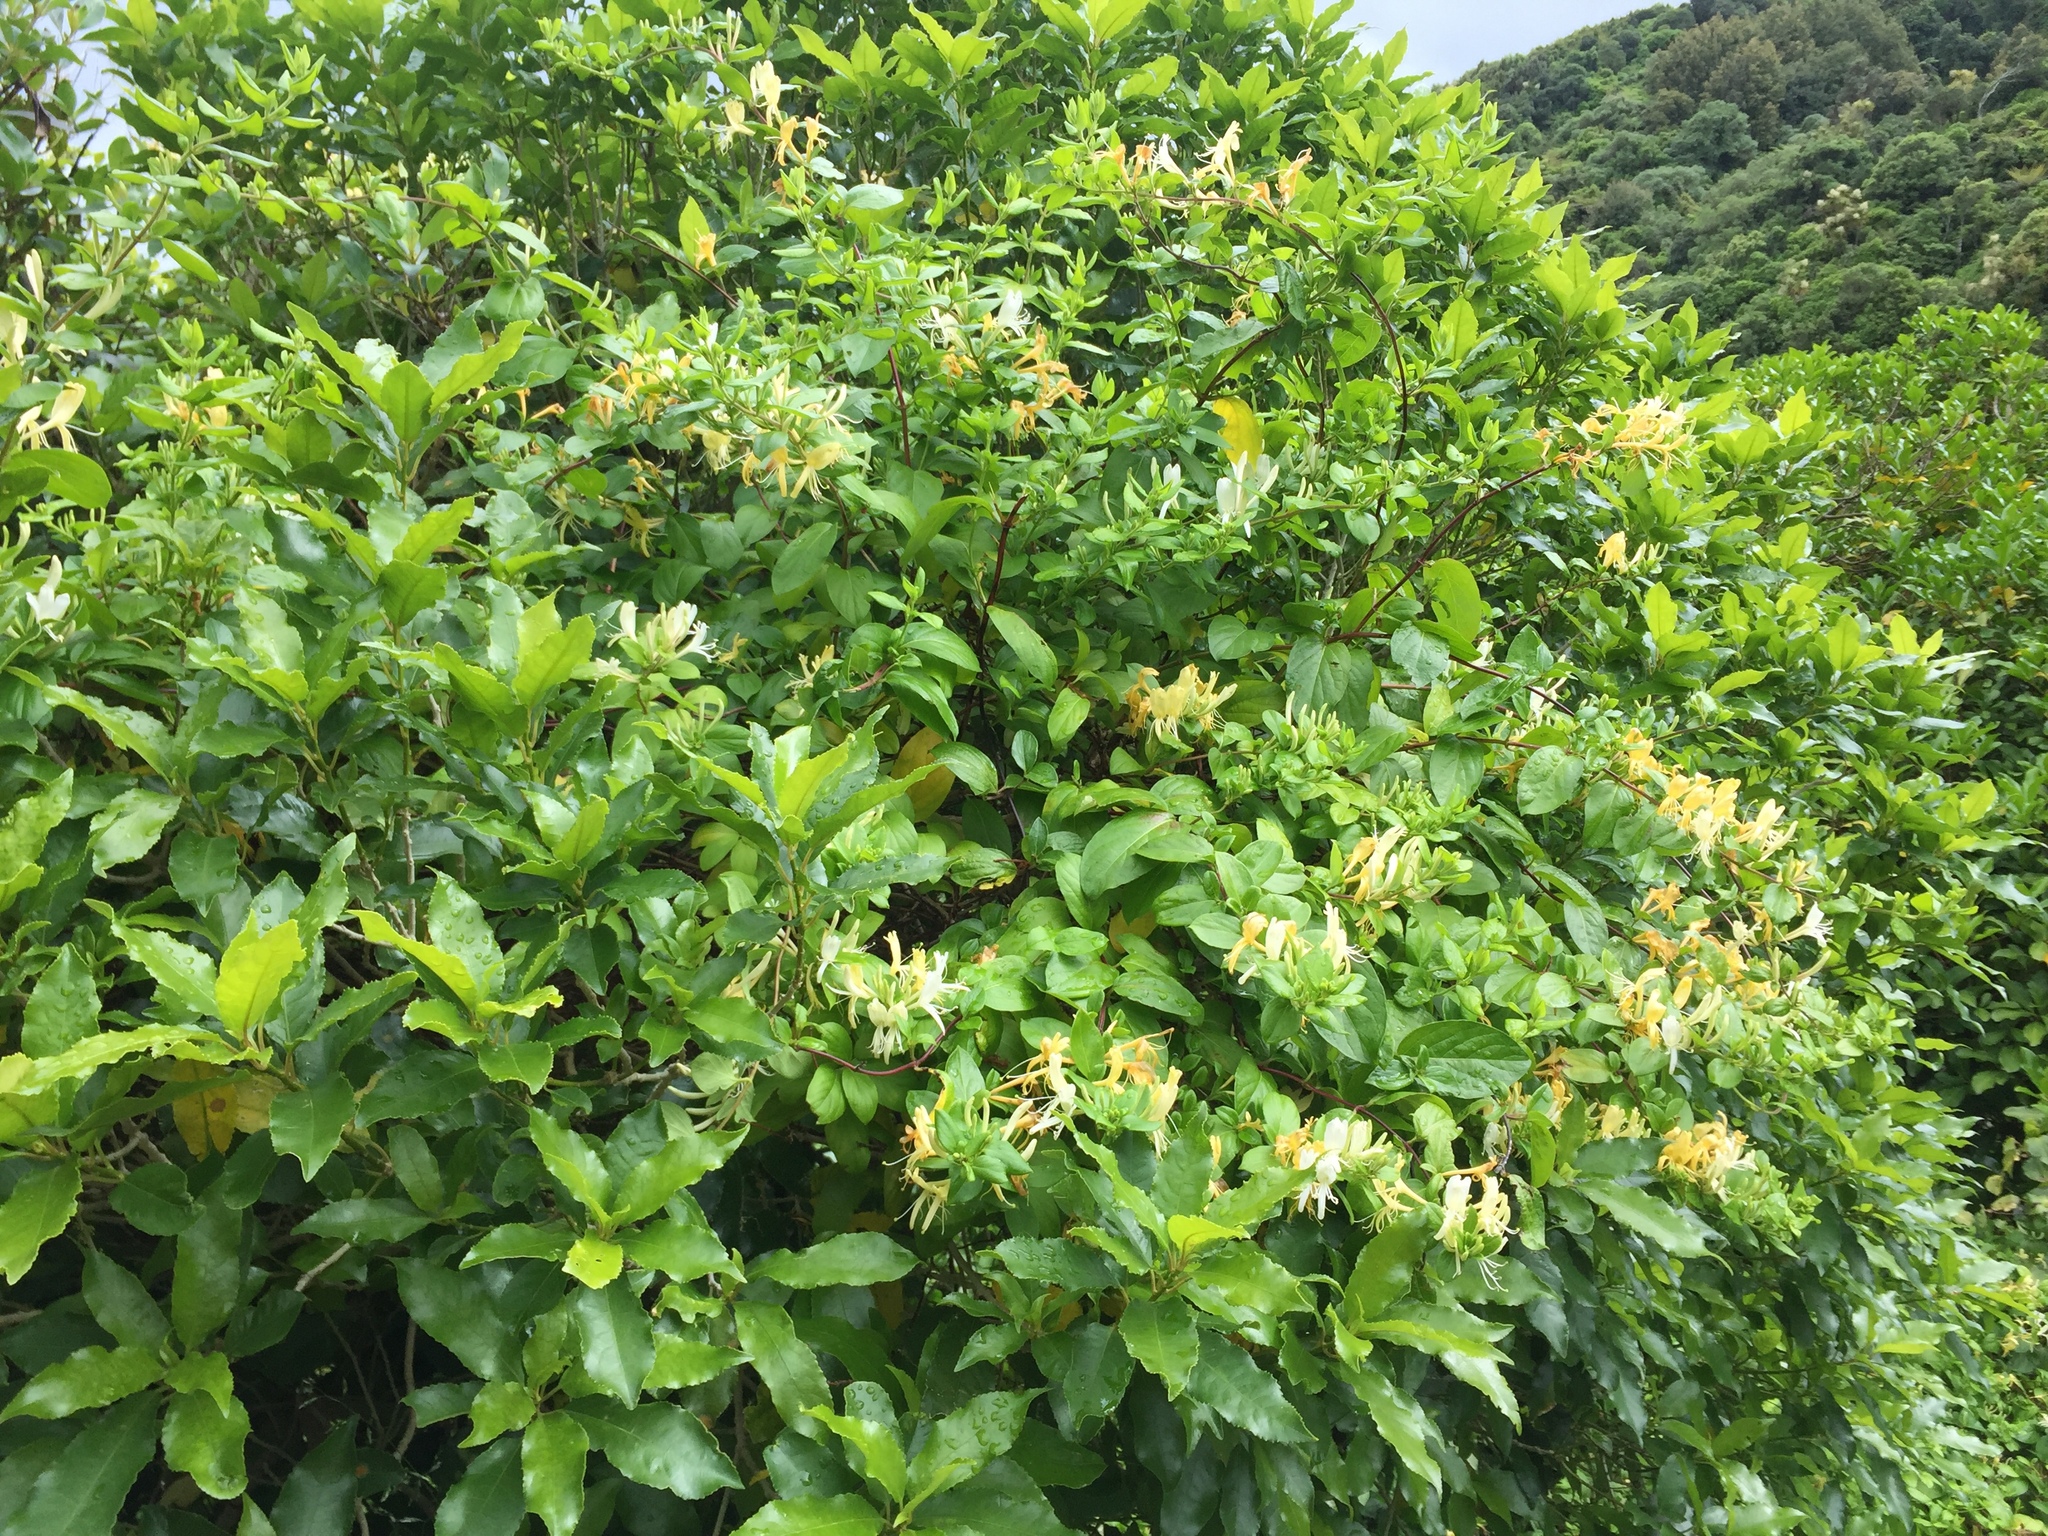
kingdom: Plantae
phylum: Tracheophyta
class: Magnoliopsida
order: Dipsacales
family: Caprifoliaceae
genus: Lonicera
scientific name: Lonicera japonica
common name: Japanese honeysuckle
